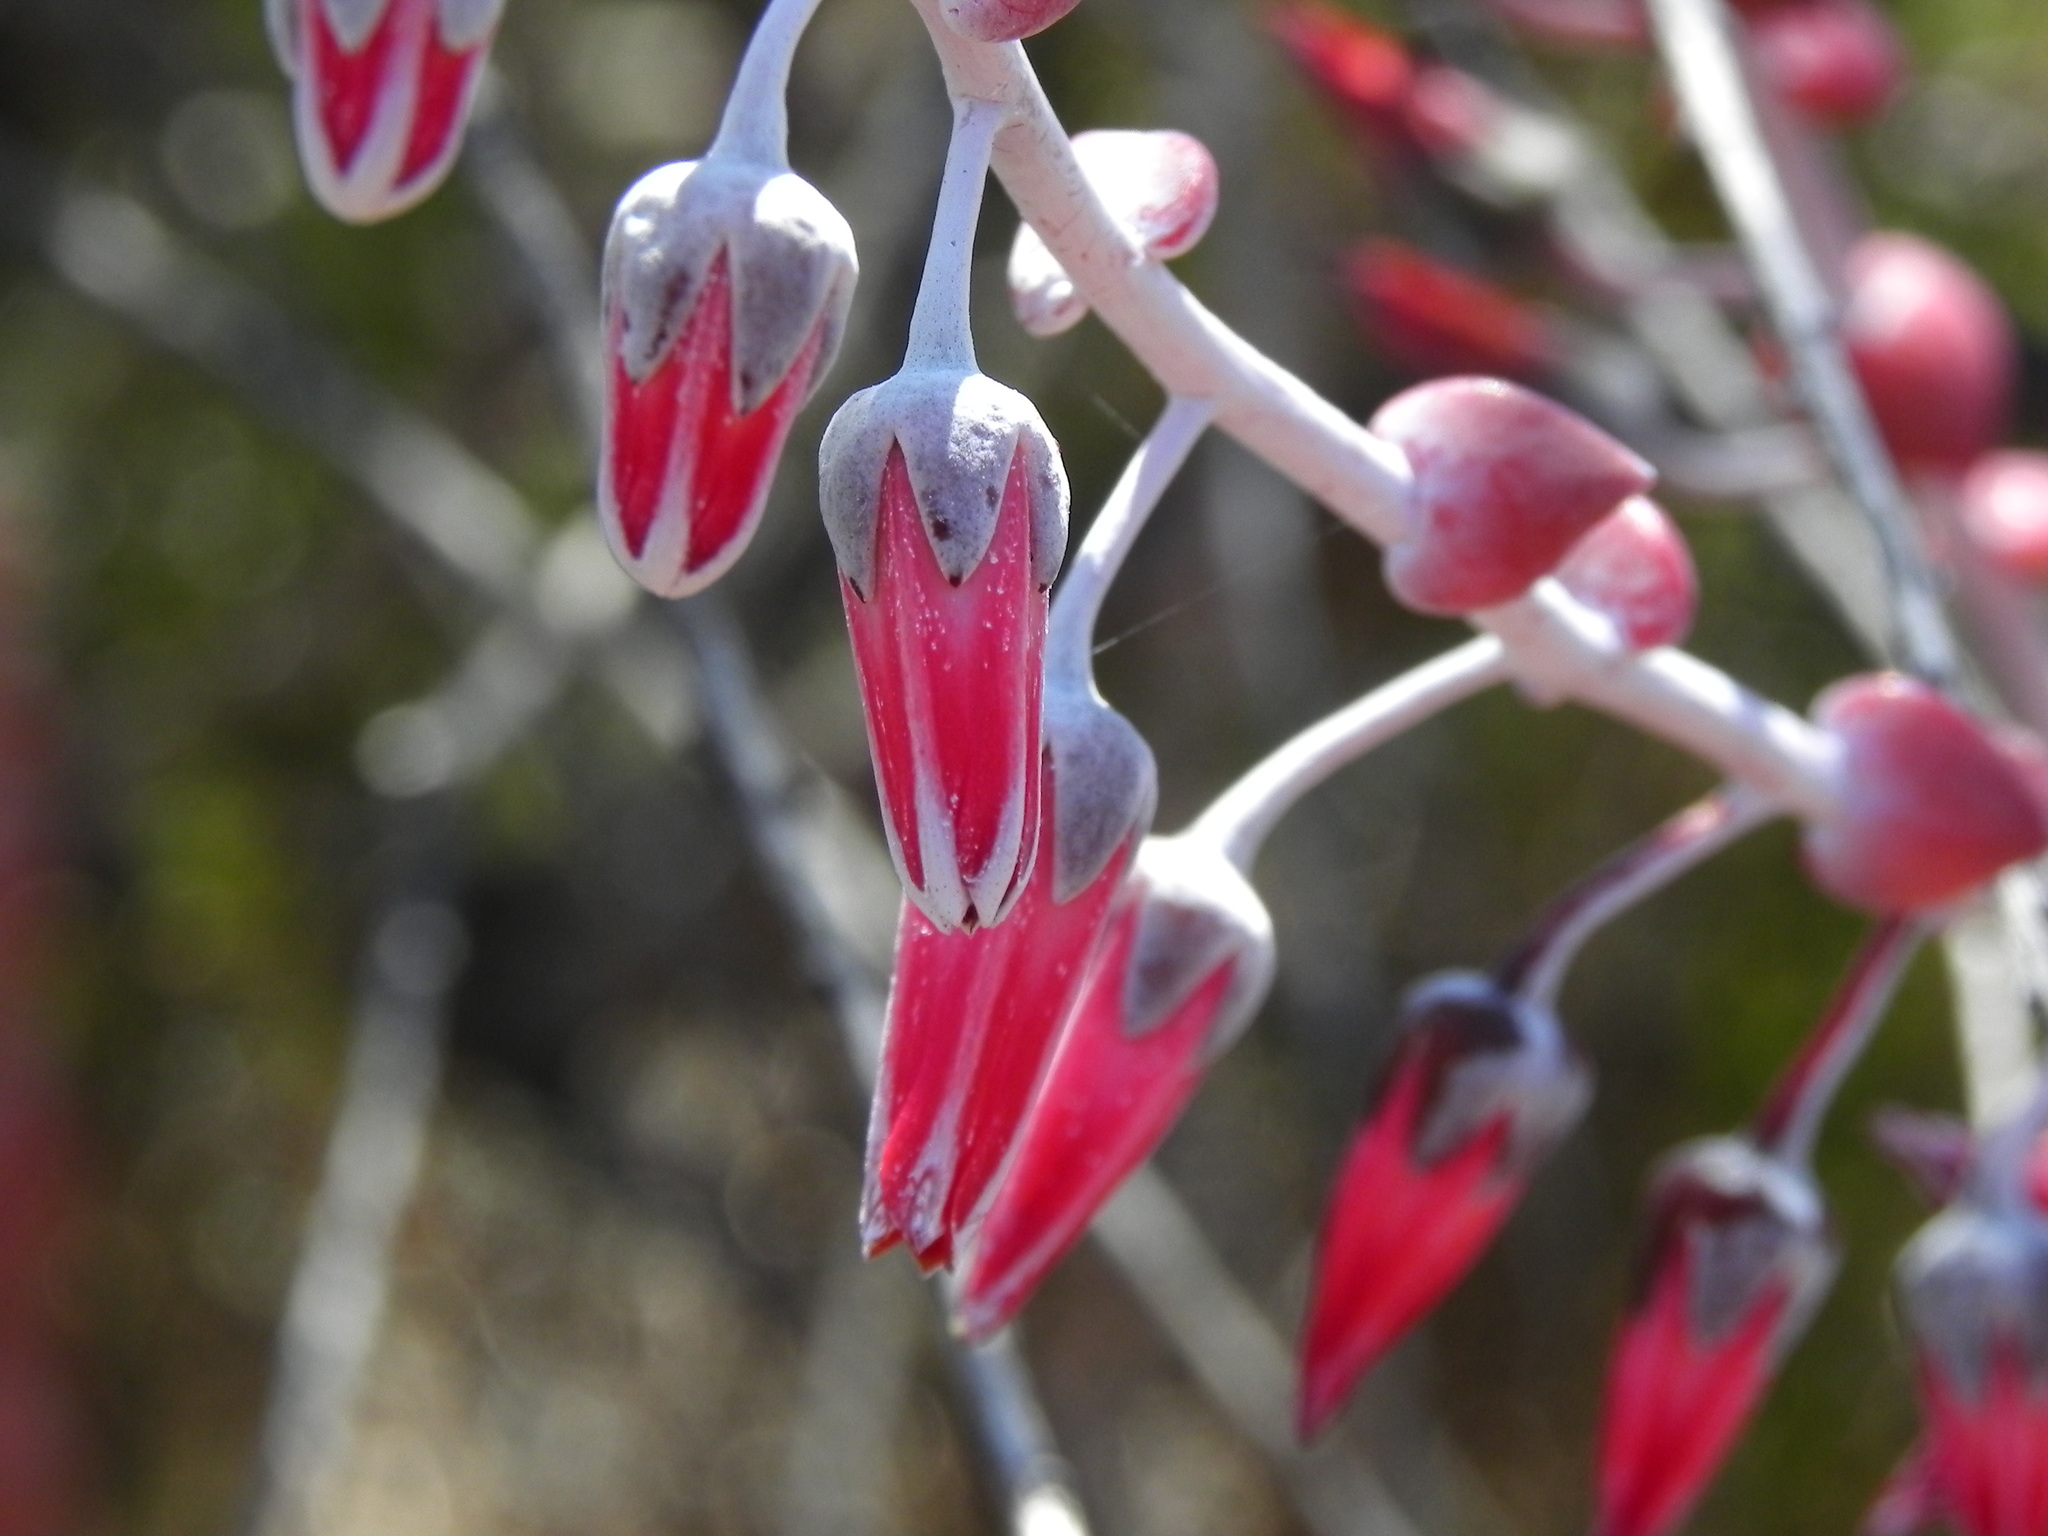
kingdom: Plantae
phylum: Tracheophyta
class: Magnoliopsida
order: Saxifragales
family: Crassulaceae
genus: Dudleya
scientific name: Dudleya pulverulenta
